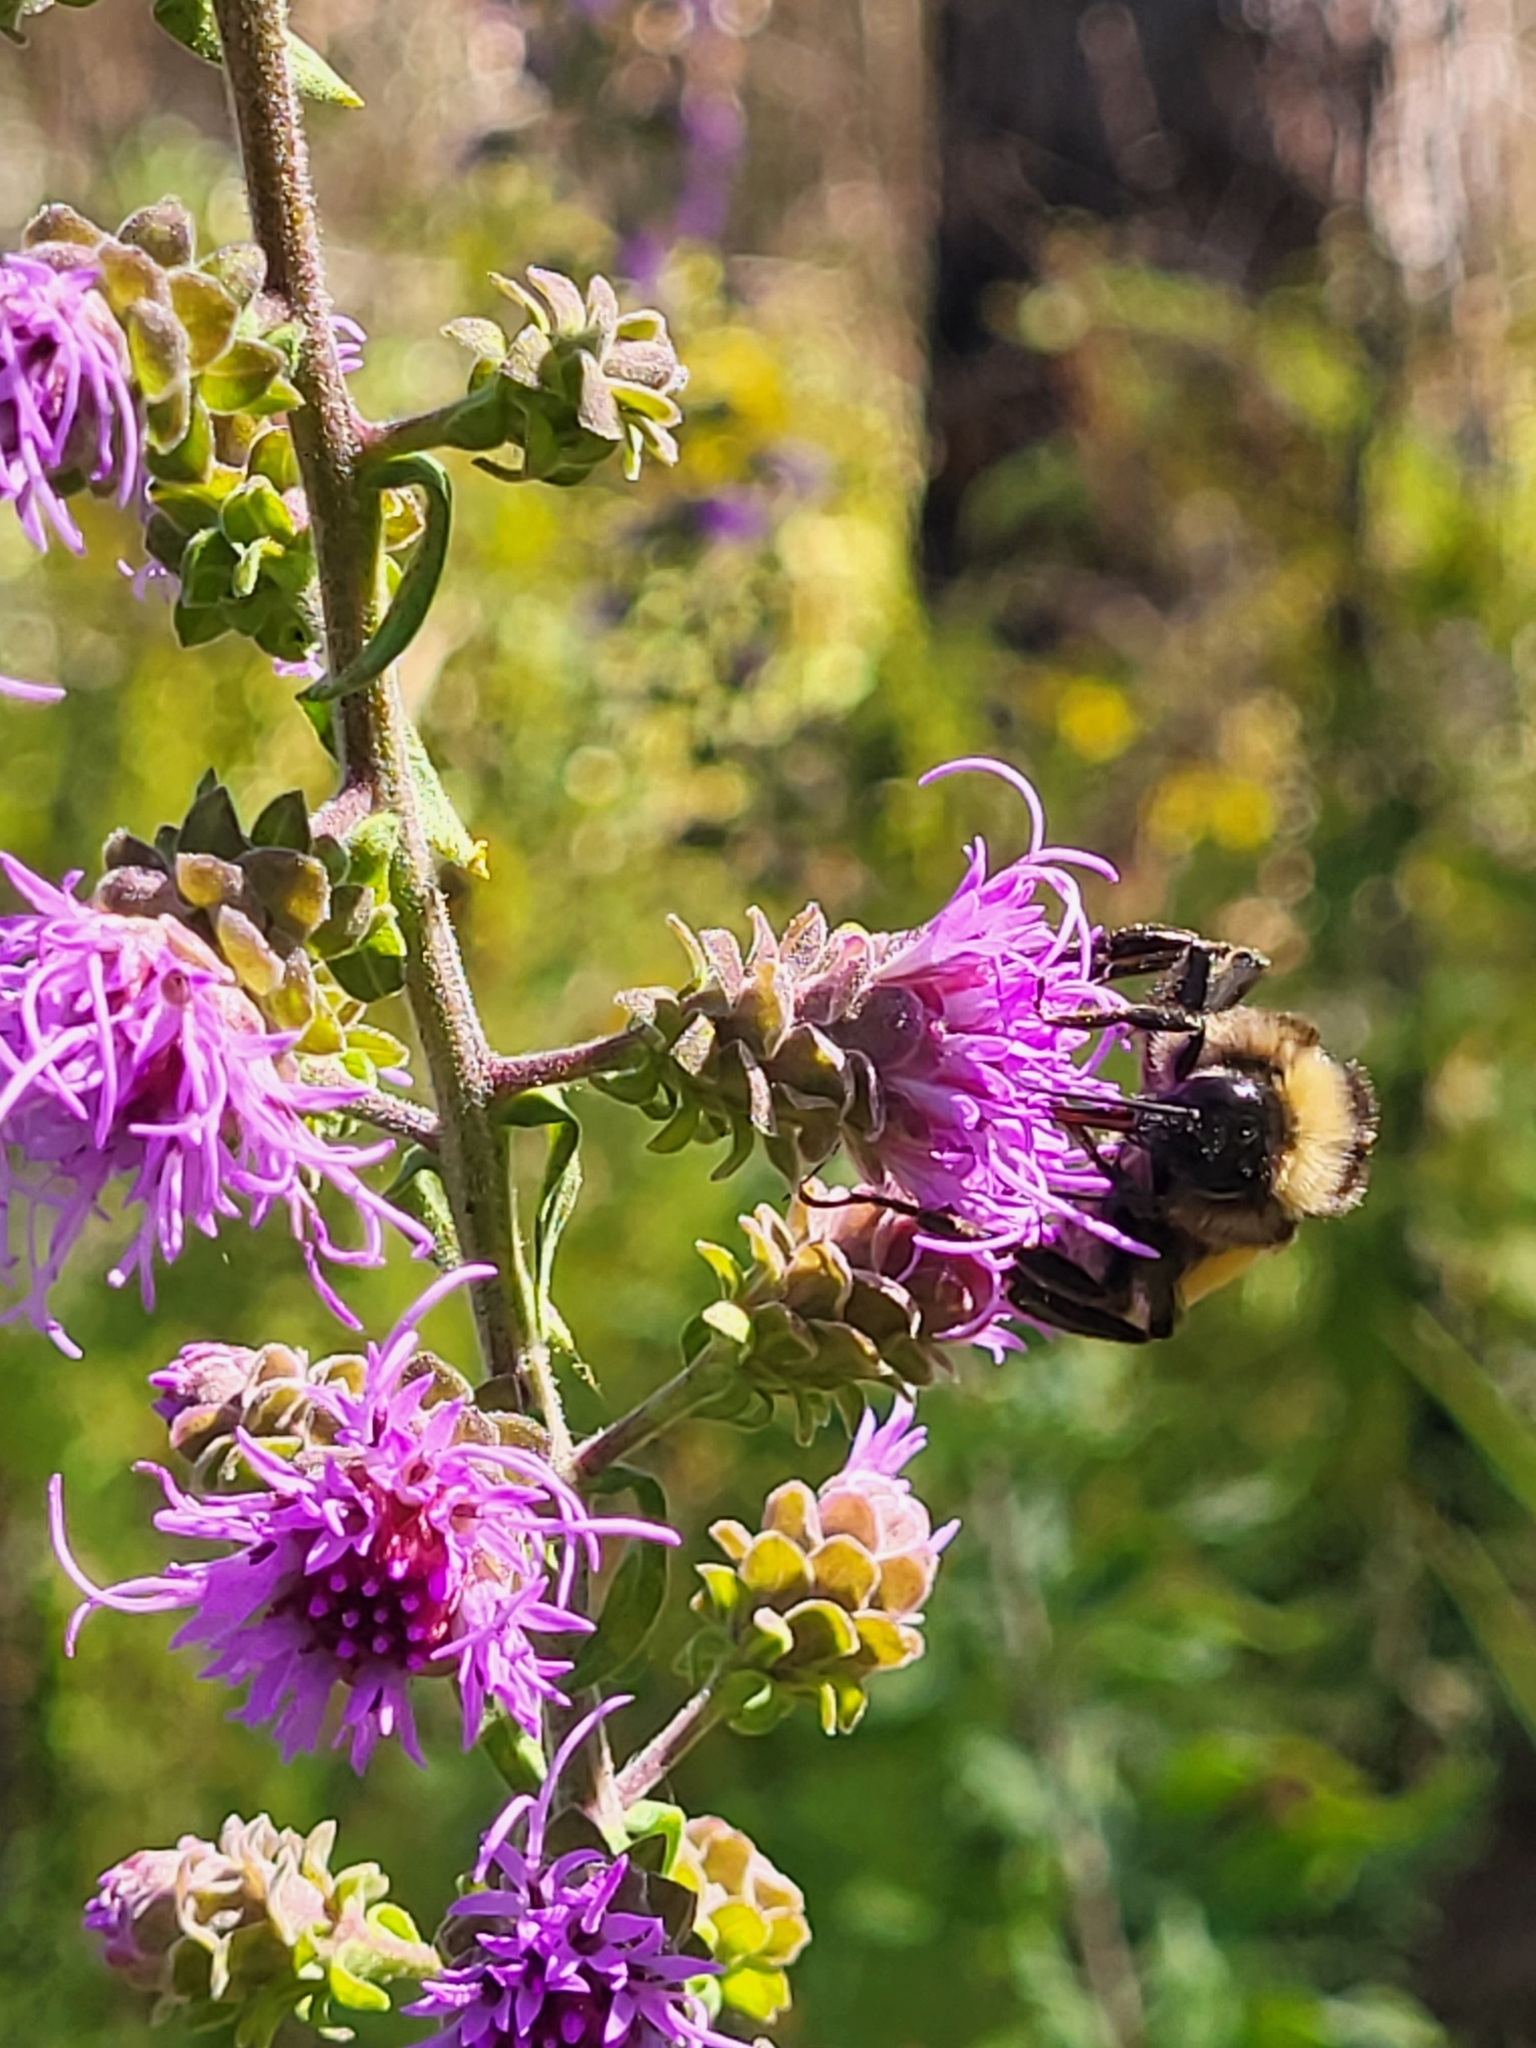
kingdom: Animalia
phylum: Arthropoda
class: Insecta
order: Hymenoptera
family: Apidae
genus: Bombus
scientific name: Bombus pensylvanicus
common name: Bumble bee
